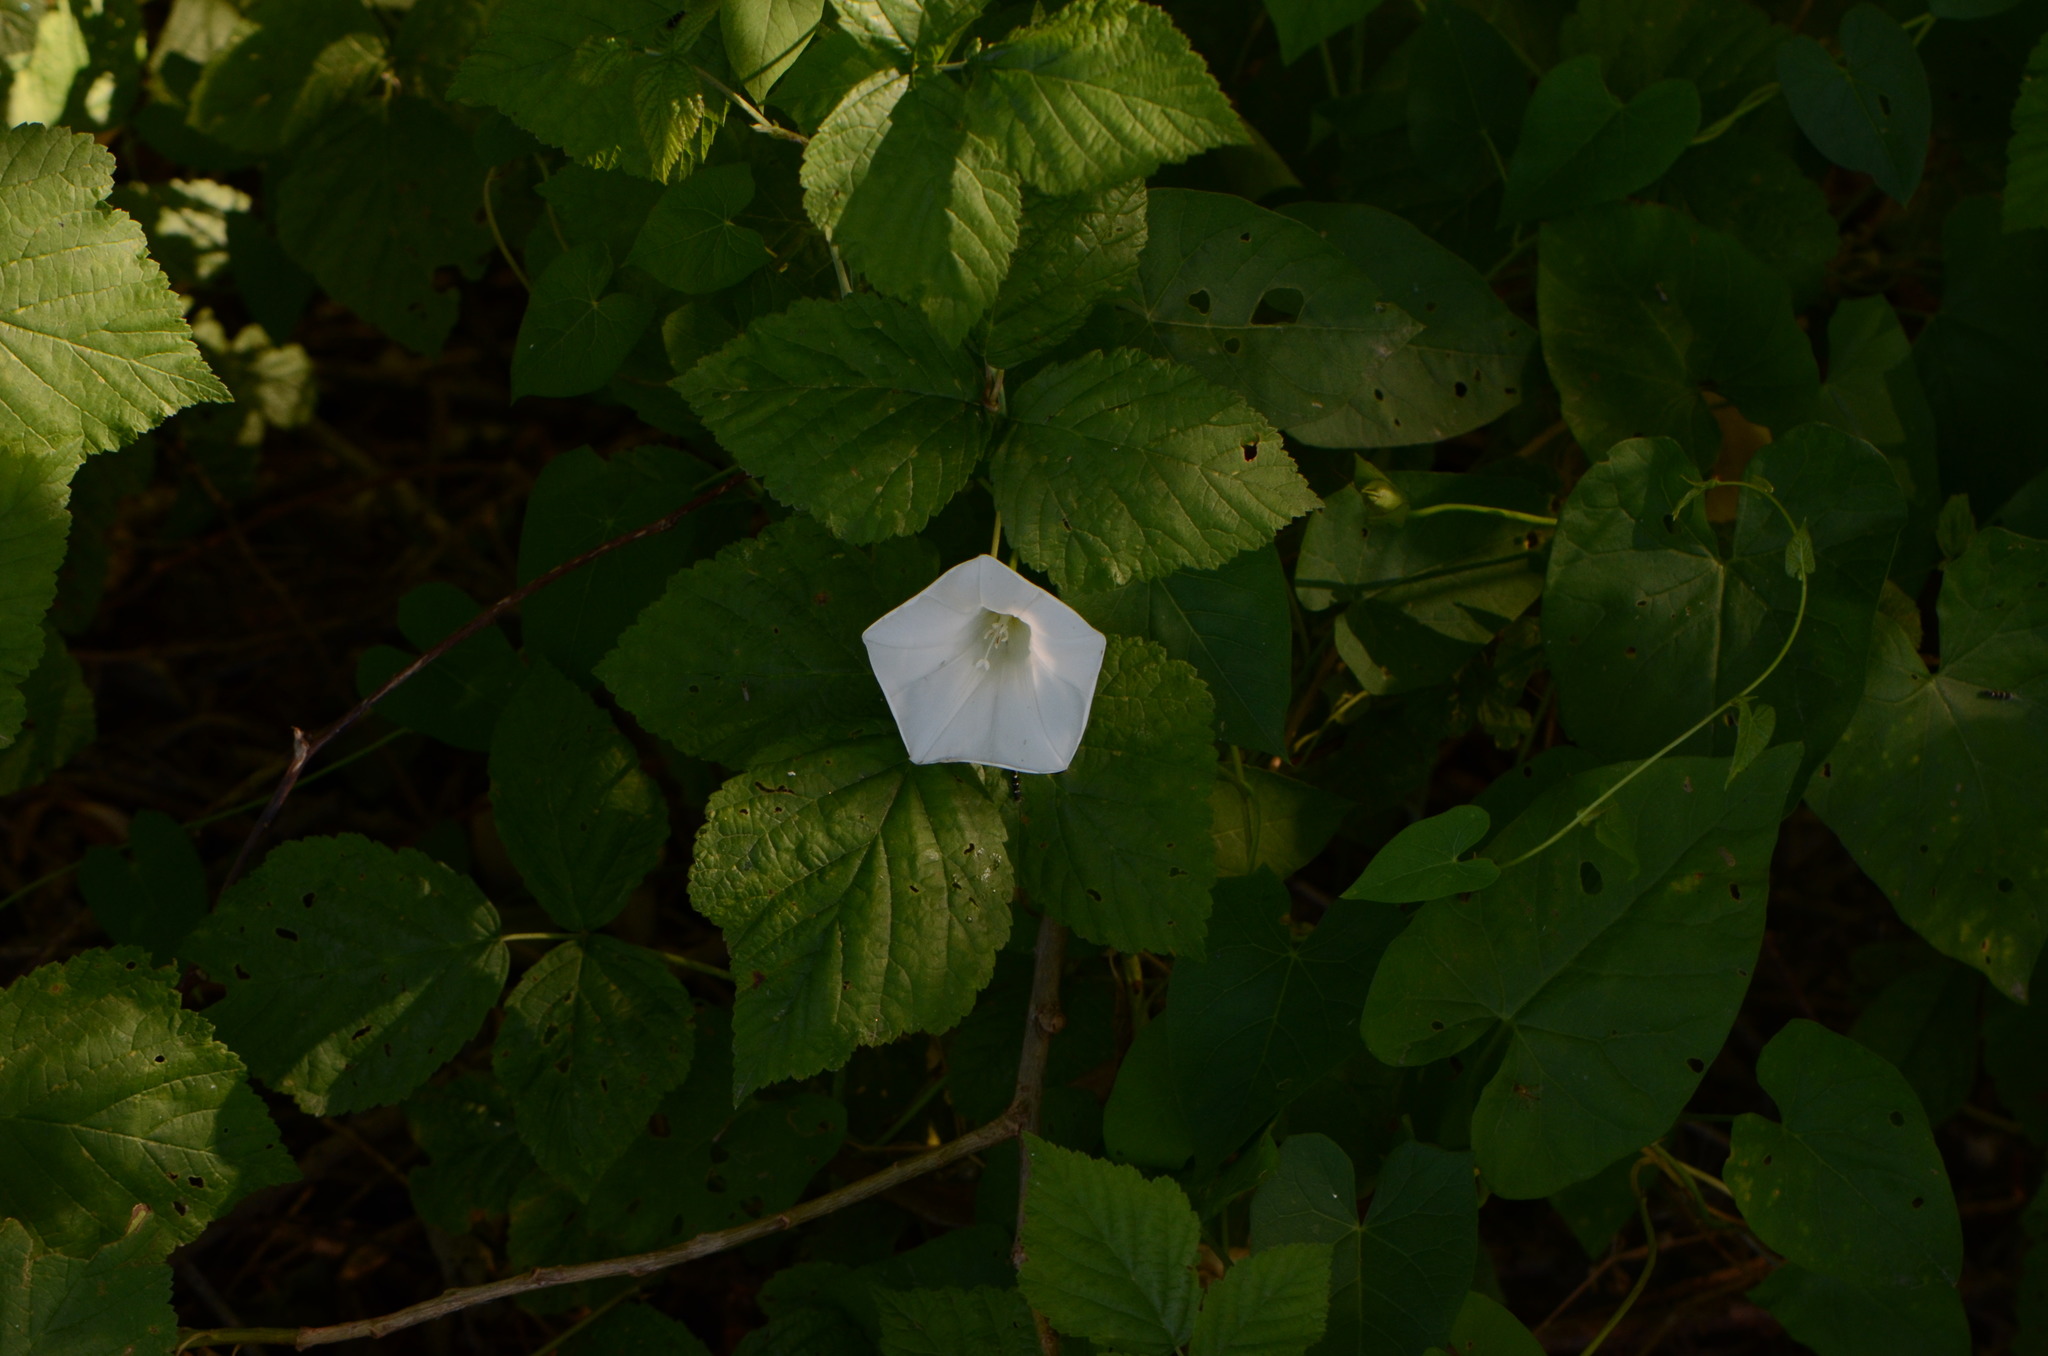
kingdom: Plantae
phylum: Tracheophyta
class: Magnoliopsida
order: Solanales
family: Convolvulaceae
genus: Calystegia
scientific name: Calystegia sepium
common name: Hedge bindweed
